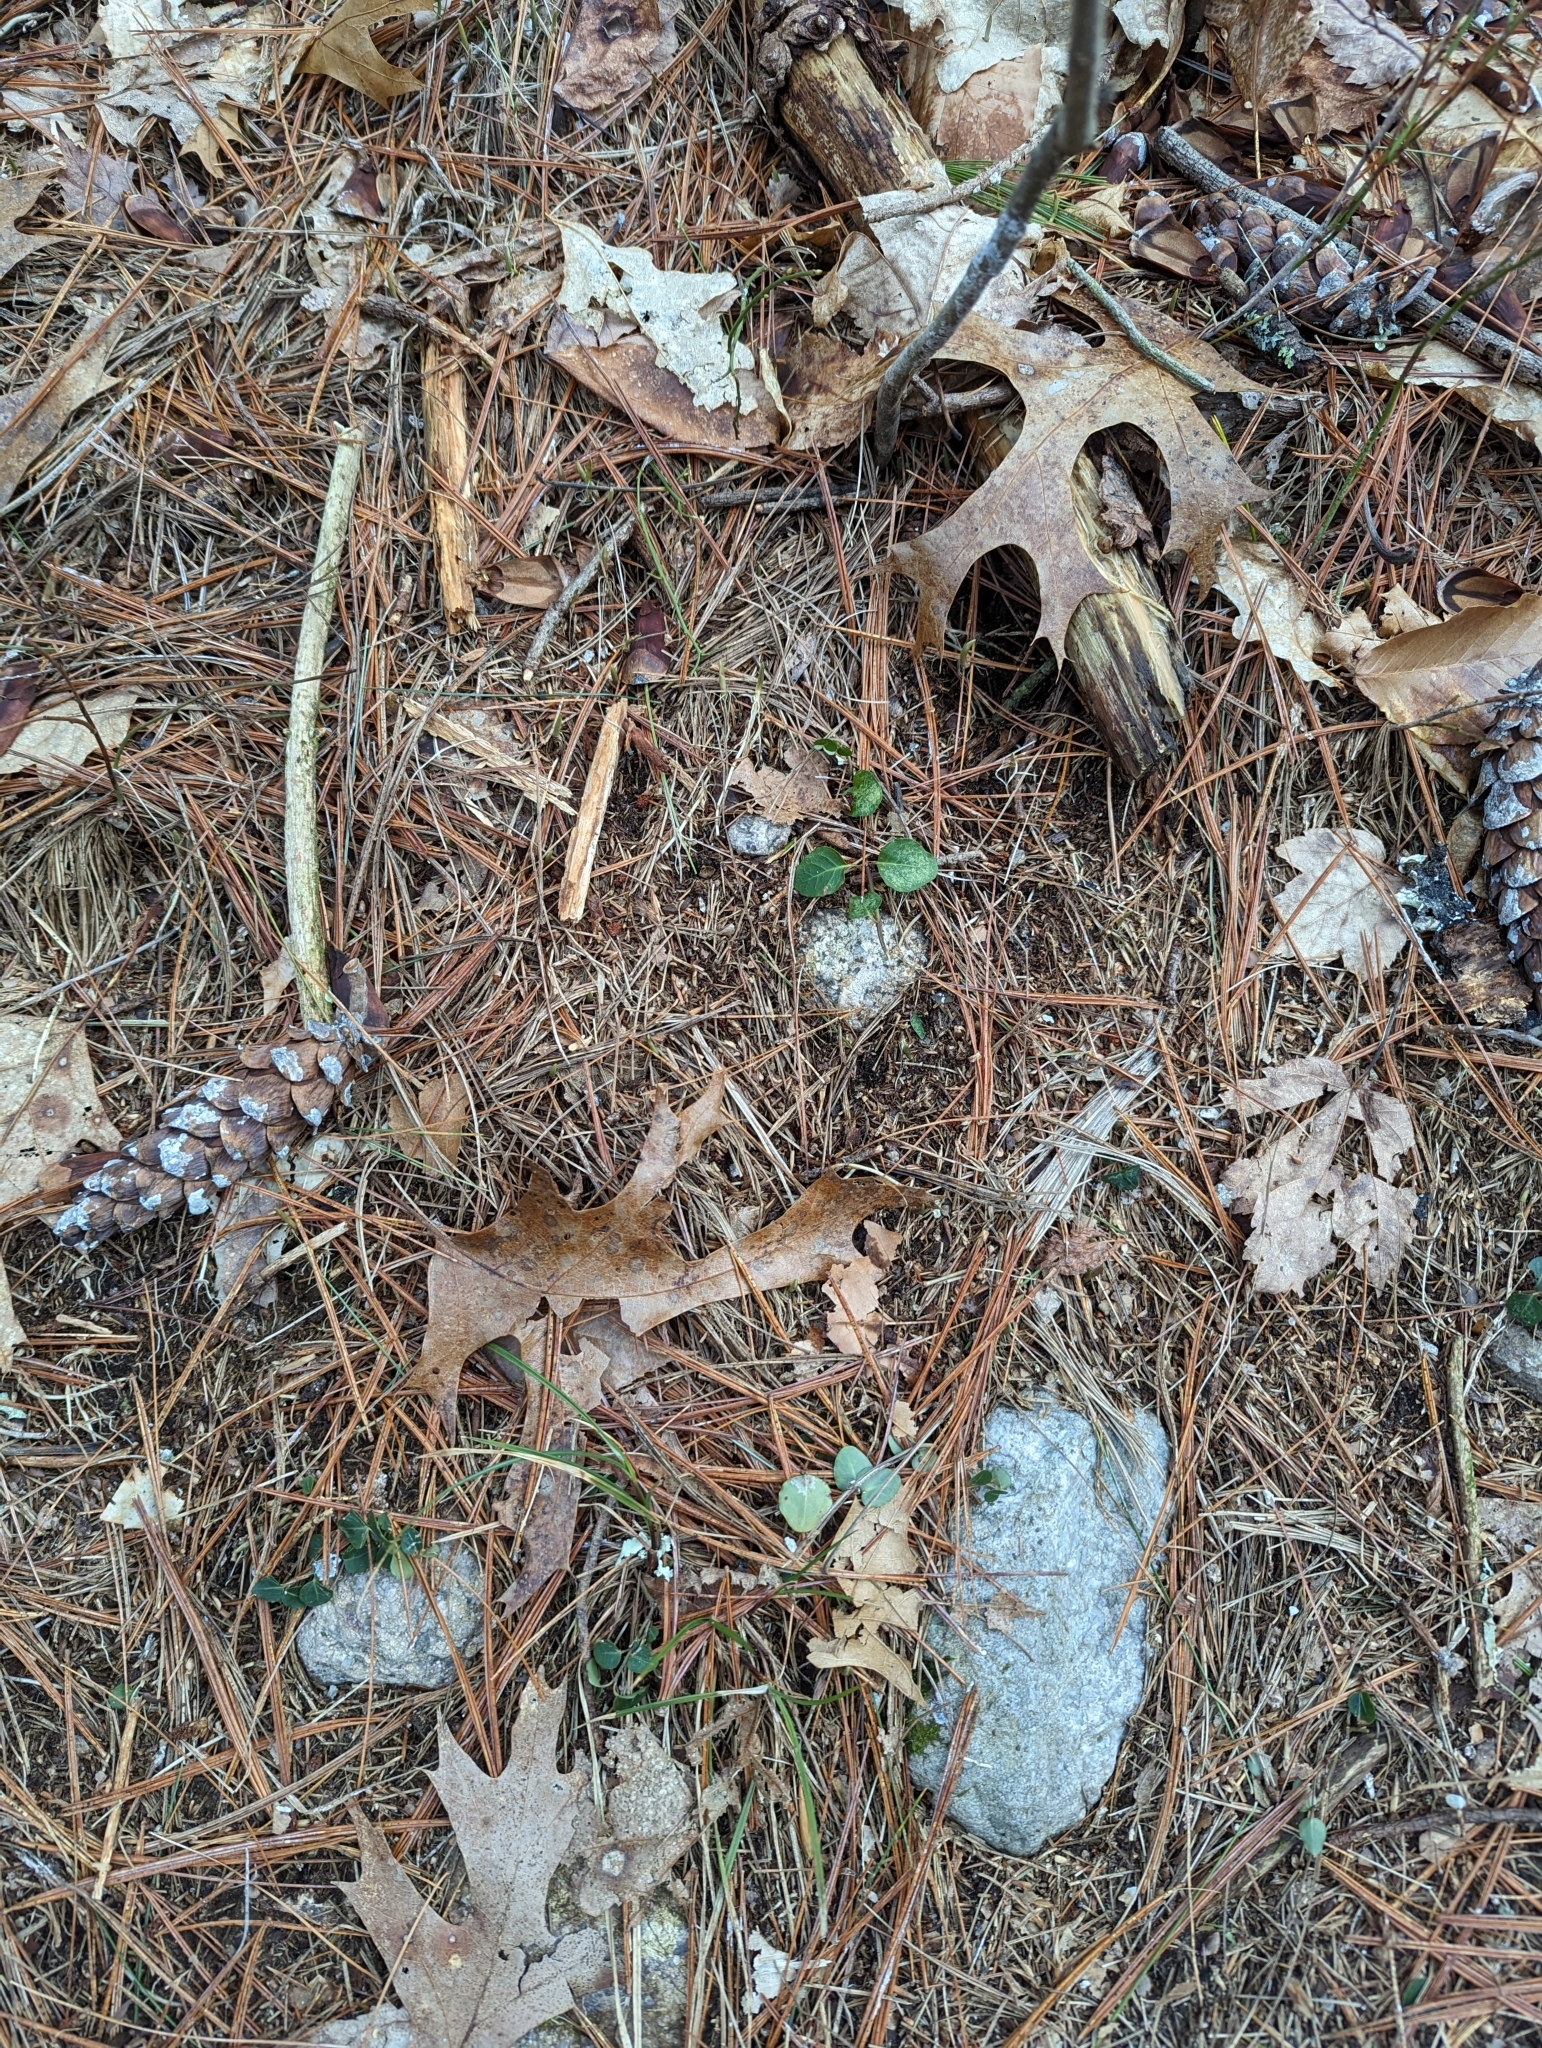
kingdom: Plantae
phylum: Tracheophyta
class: Magnoliopsida
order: Gentianales
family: Rubiaceae
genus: Mitchella
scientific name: Mitchella repens
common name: Partridge-berry
